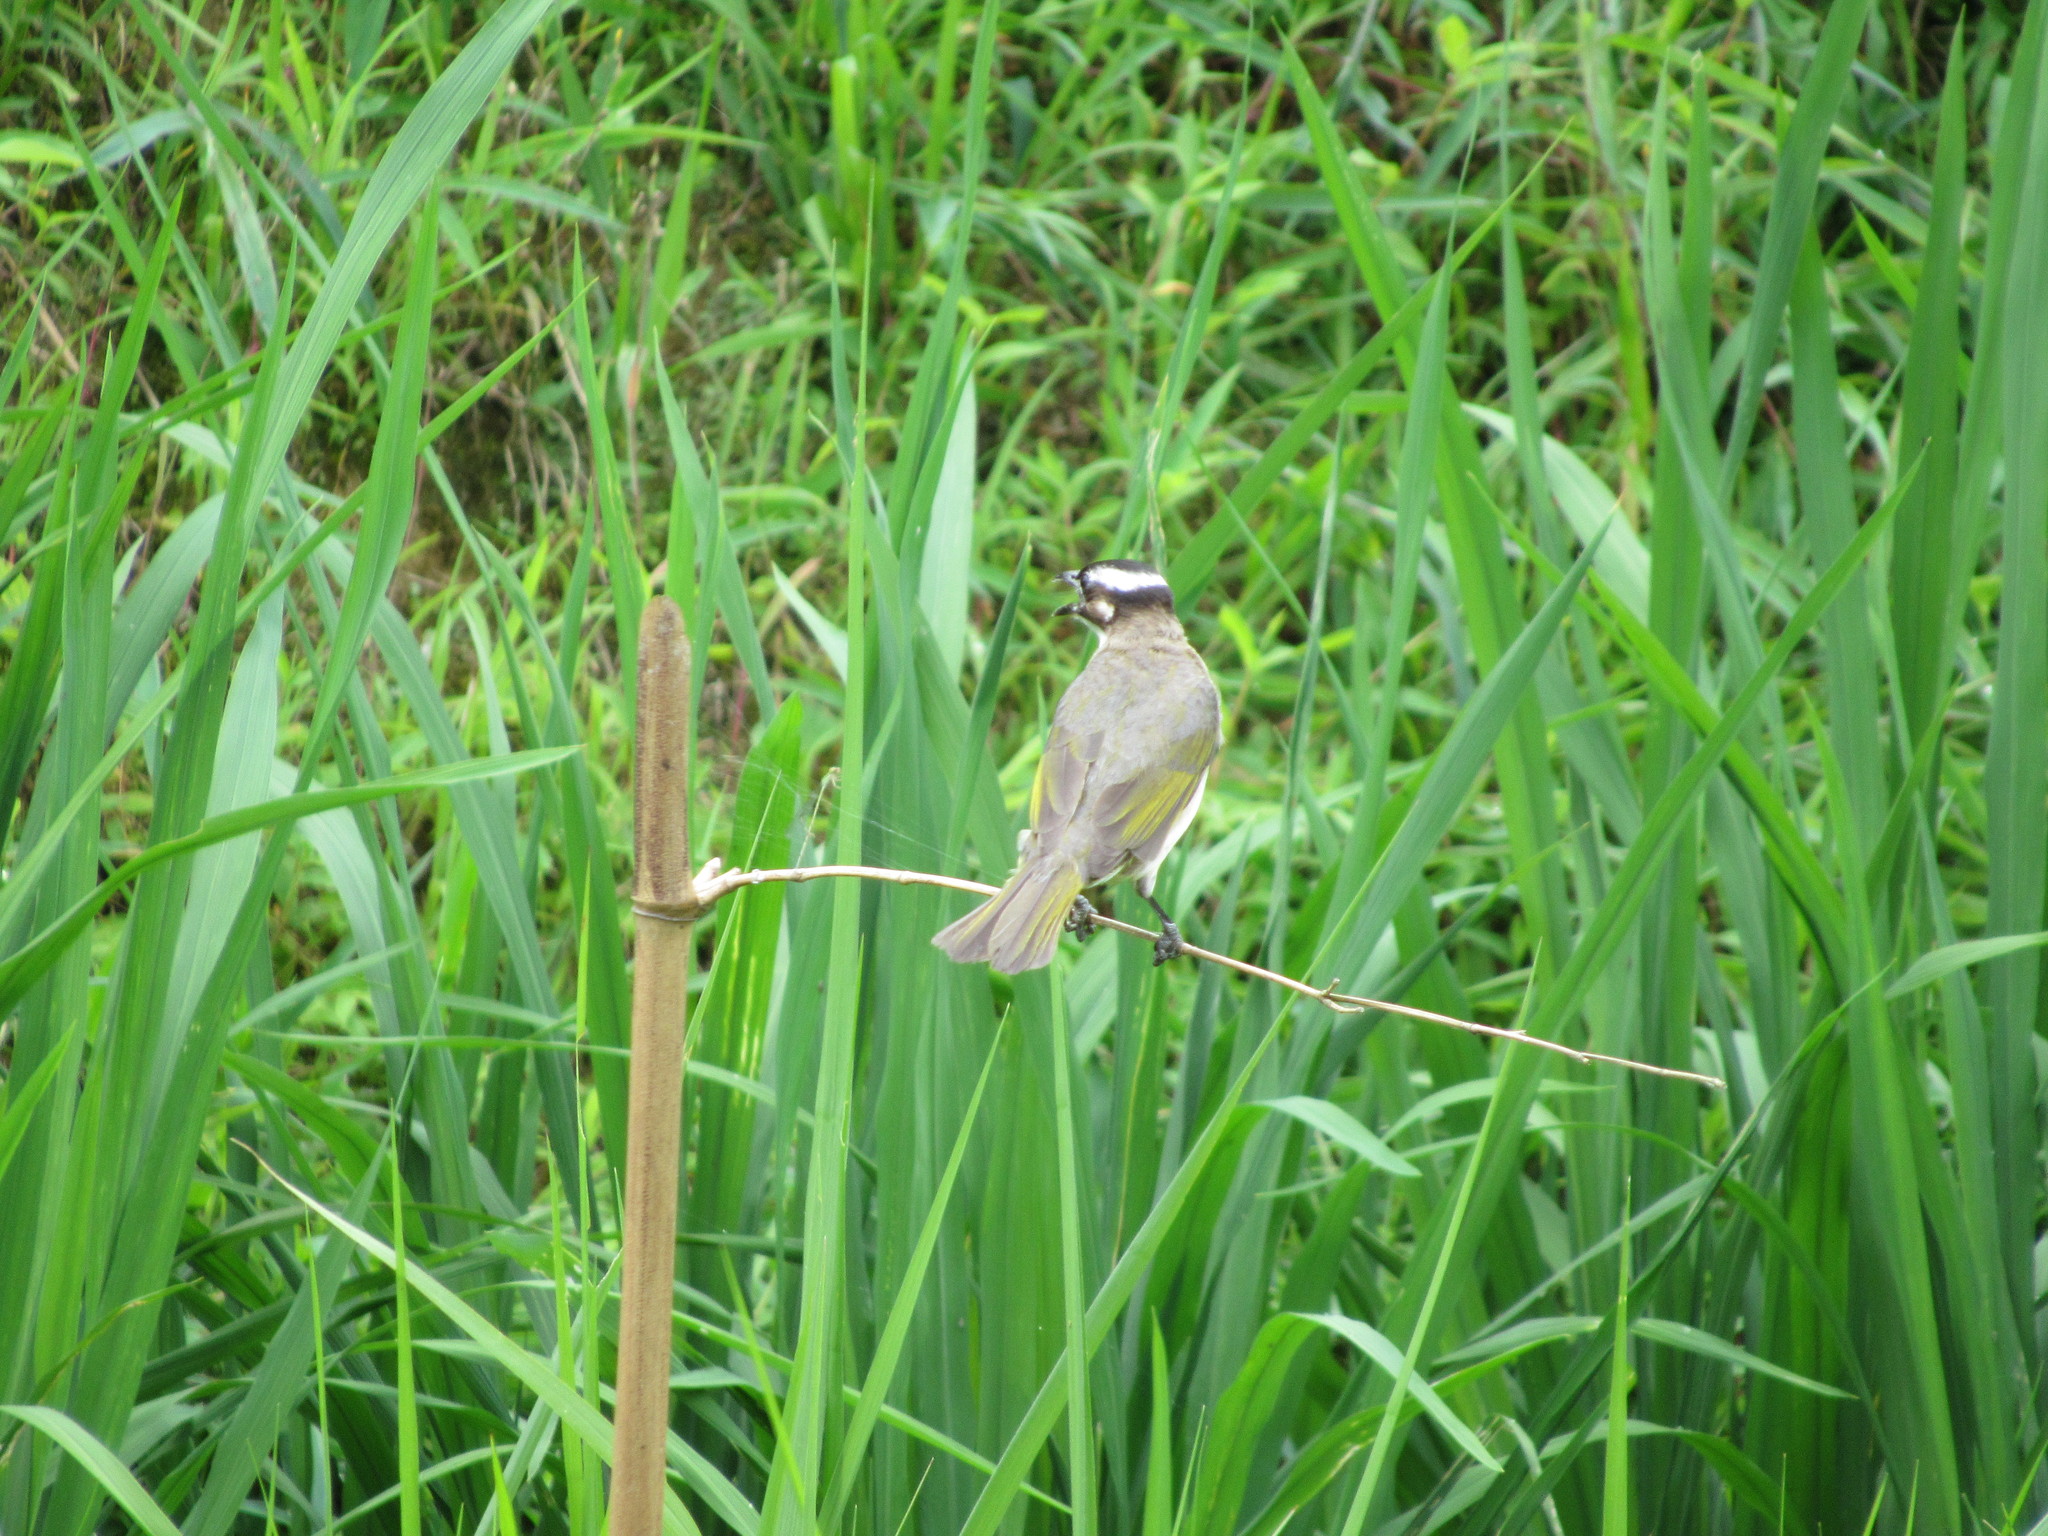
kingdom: Animalia
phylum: Chordata
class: Aves
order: Passeriformes
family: Pycnonotidae
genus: Pycnonotus
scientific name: Pycnonotus sinensis
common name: Light-vented bulbul
